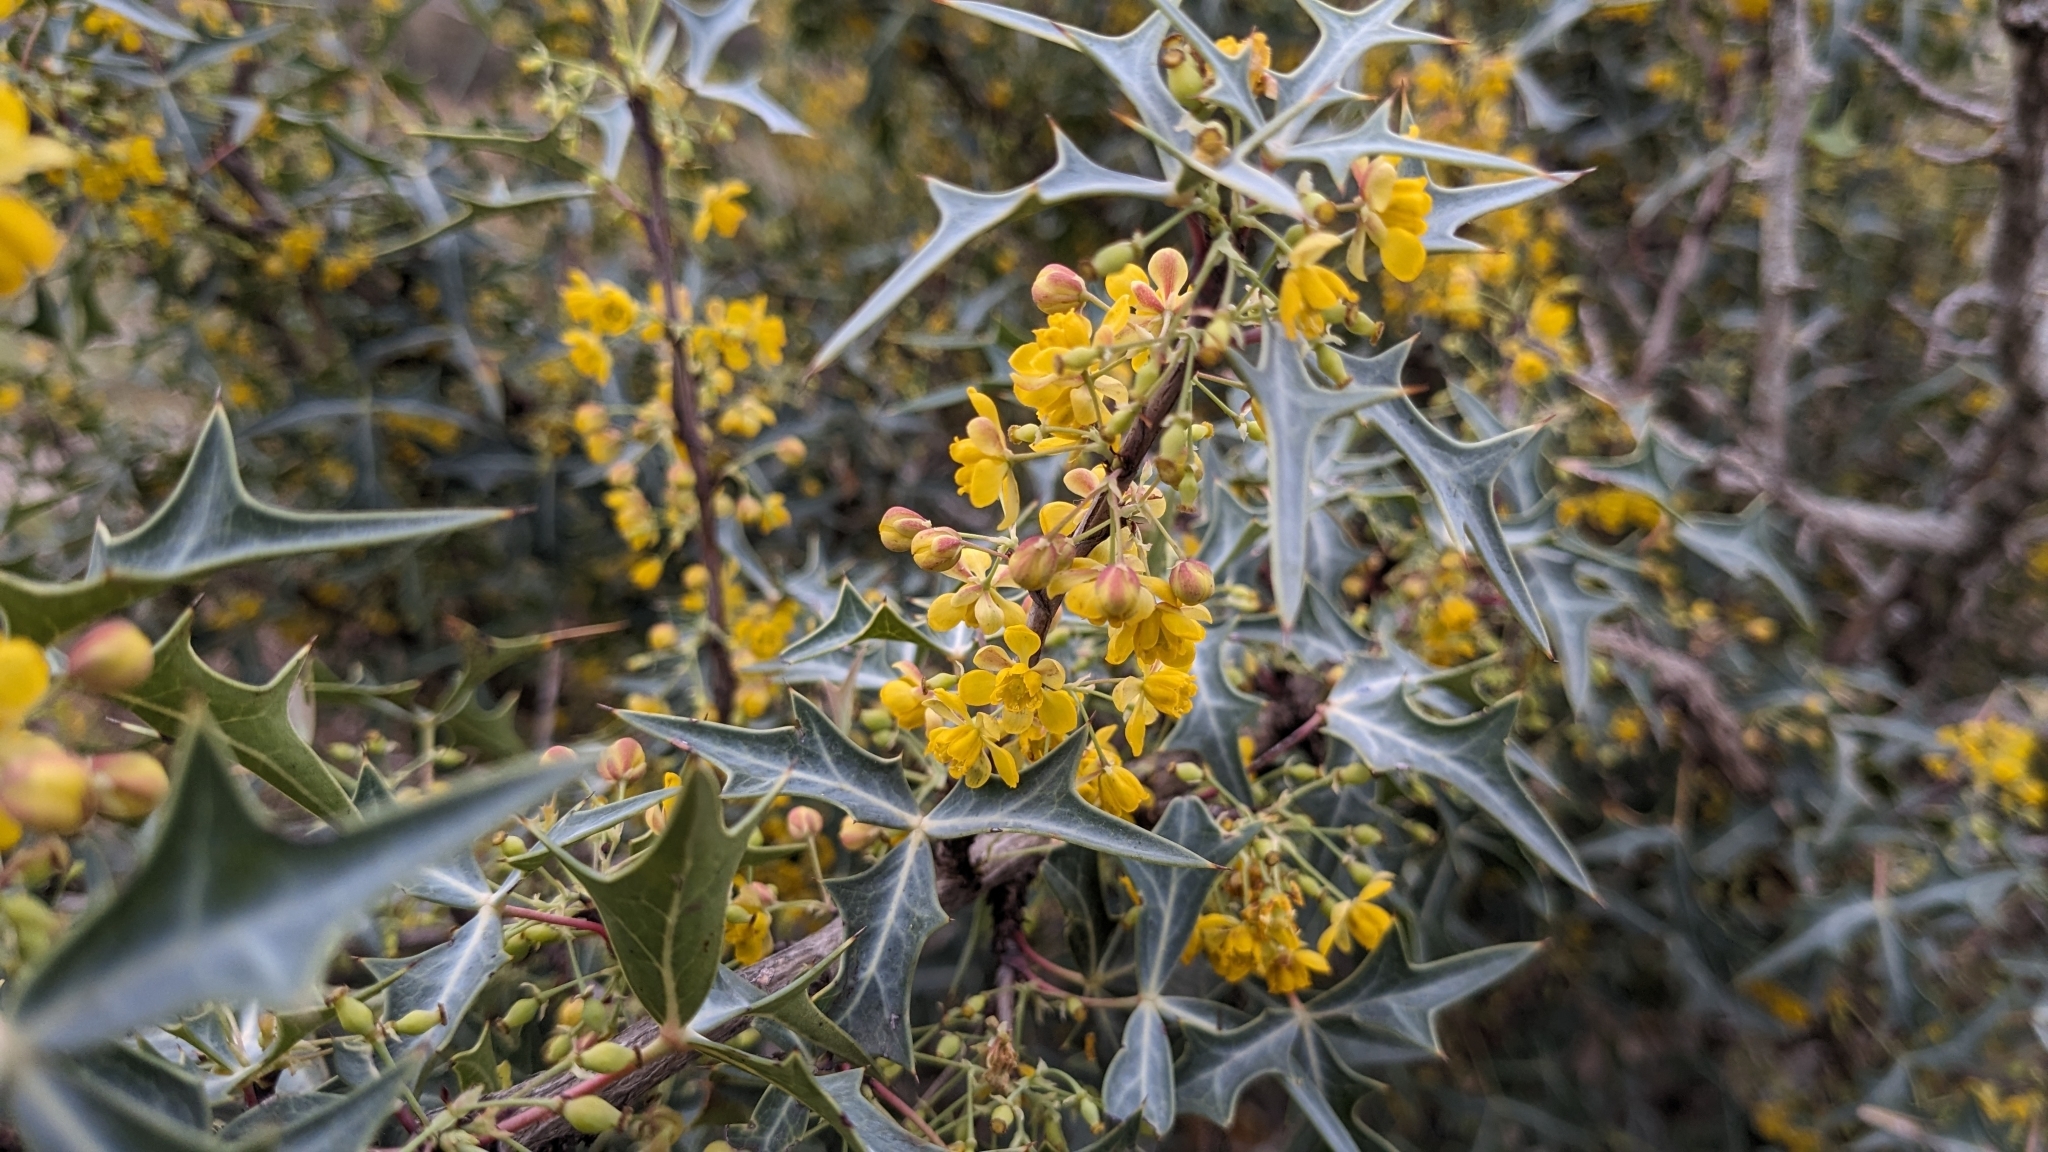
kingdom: Plantae
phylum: Tracheophyta
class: Magnoliopsida
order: Ranunculales
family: Berberidaceae
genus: Alloberberis
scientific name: Alloberberis trifoliolata
